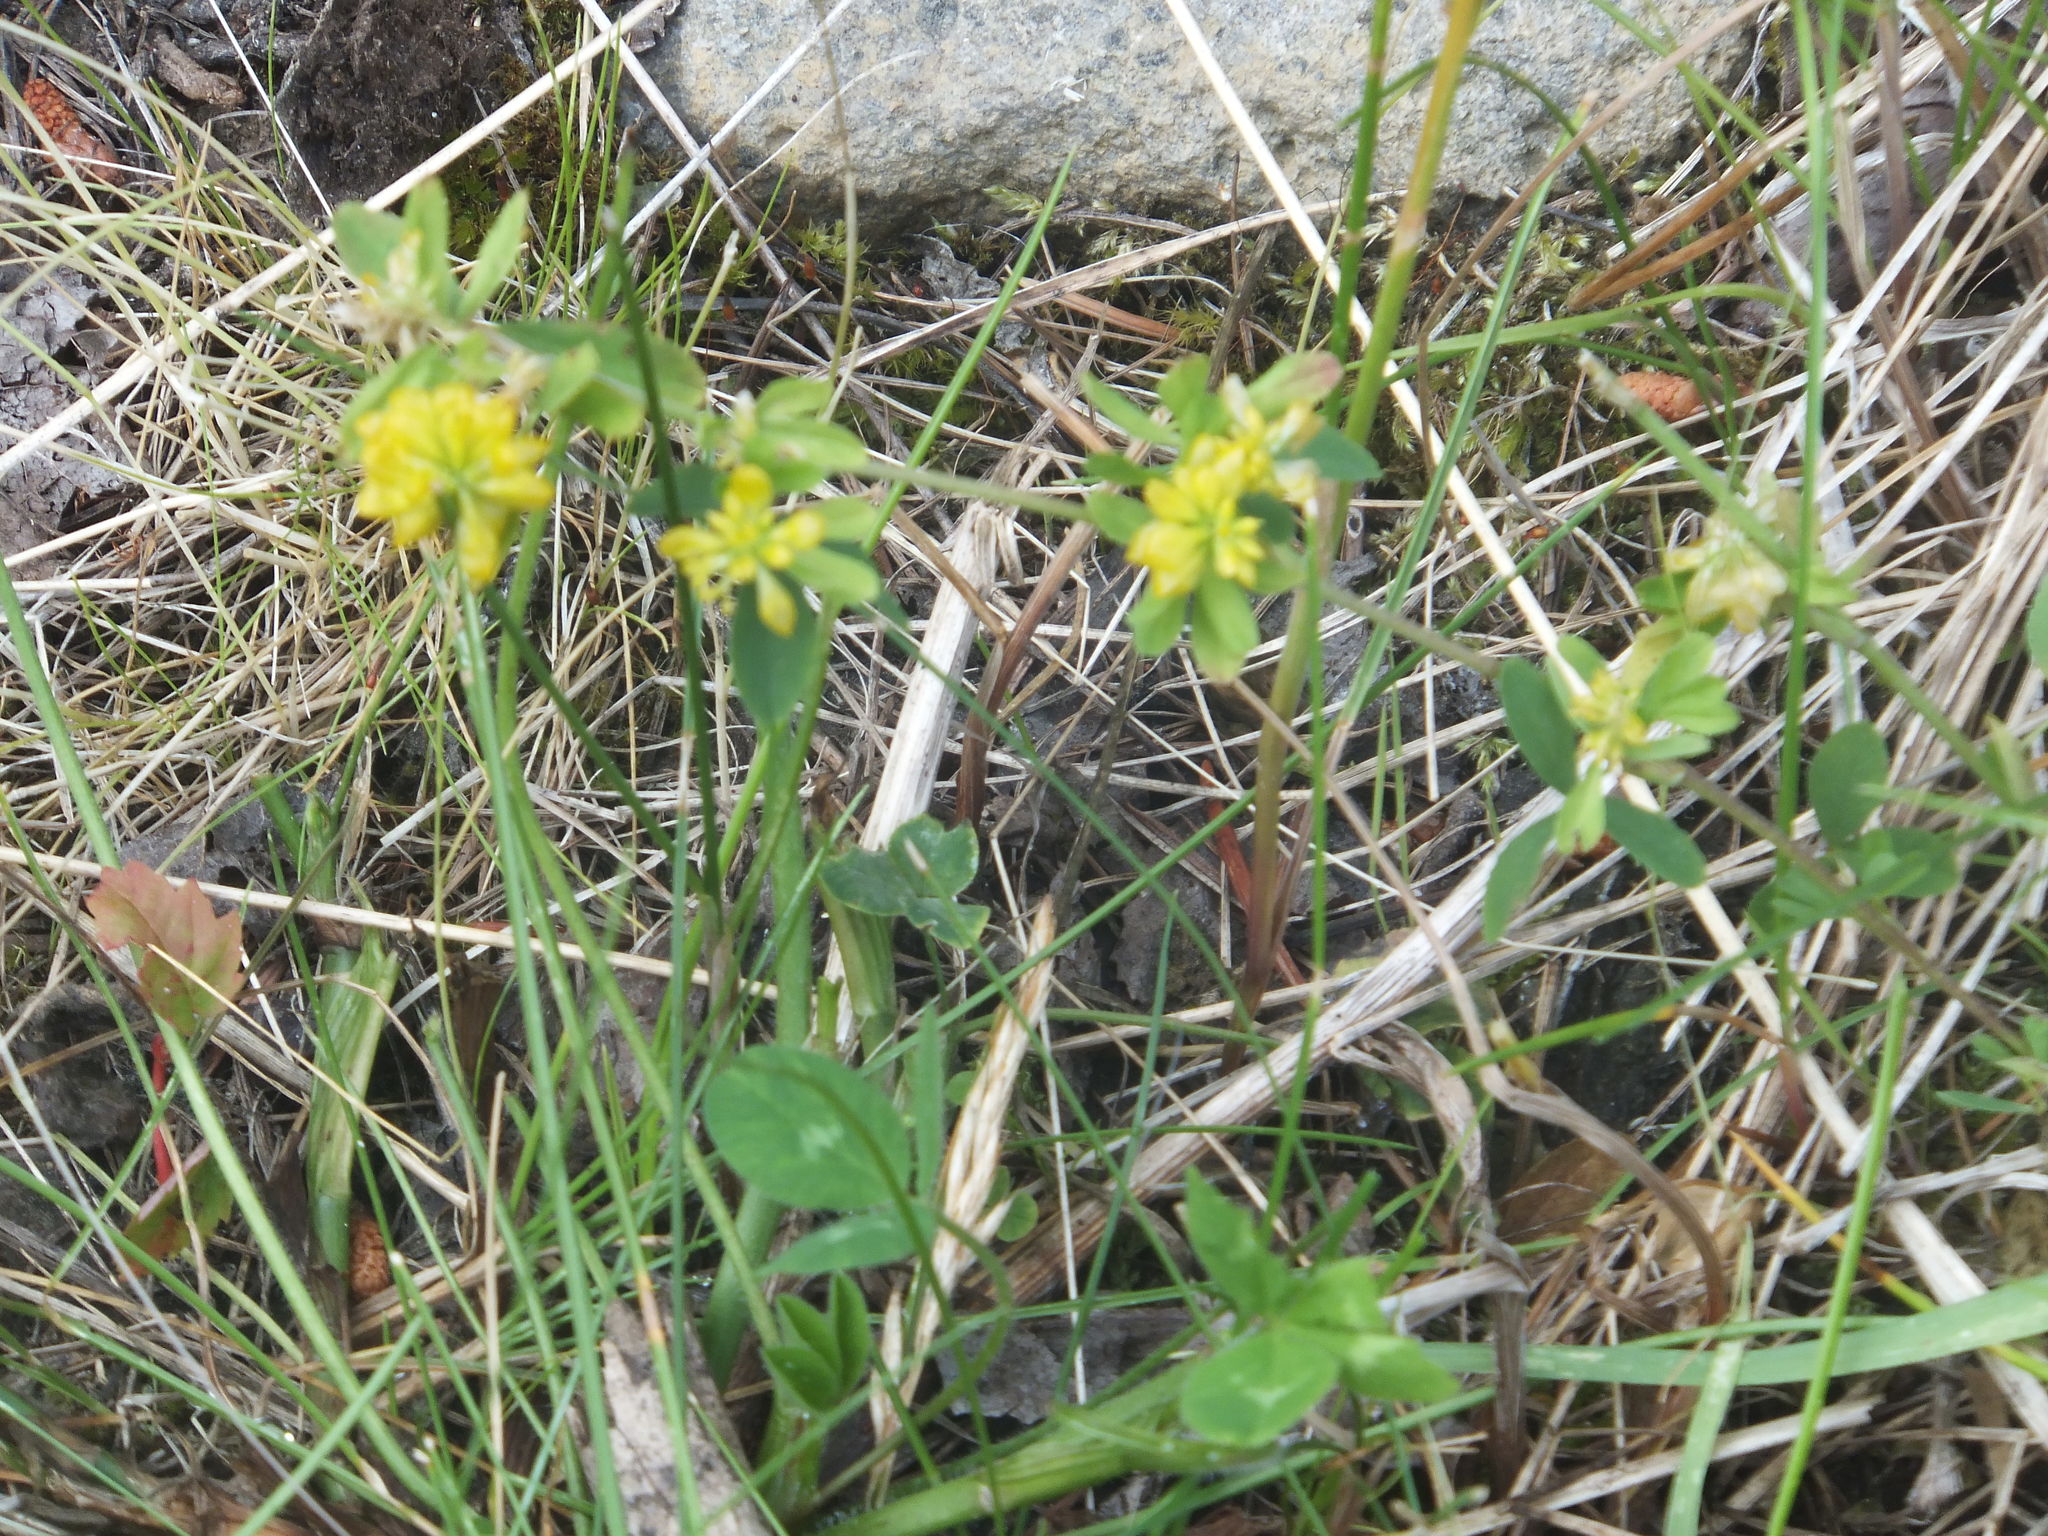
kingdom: Plantae
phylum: Tracheophyta
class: Magnoliopsida
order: Fabales
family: Fabaceae
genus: Trifolium
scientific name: Trifolium aureum
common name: Golden clover
